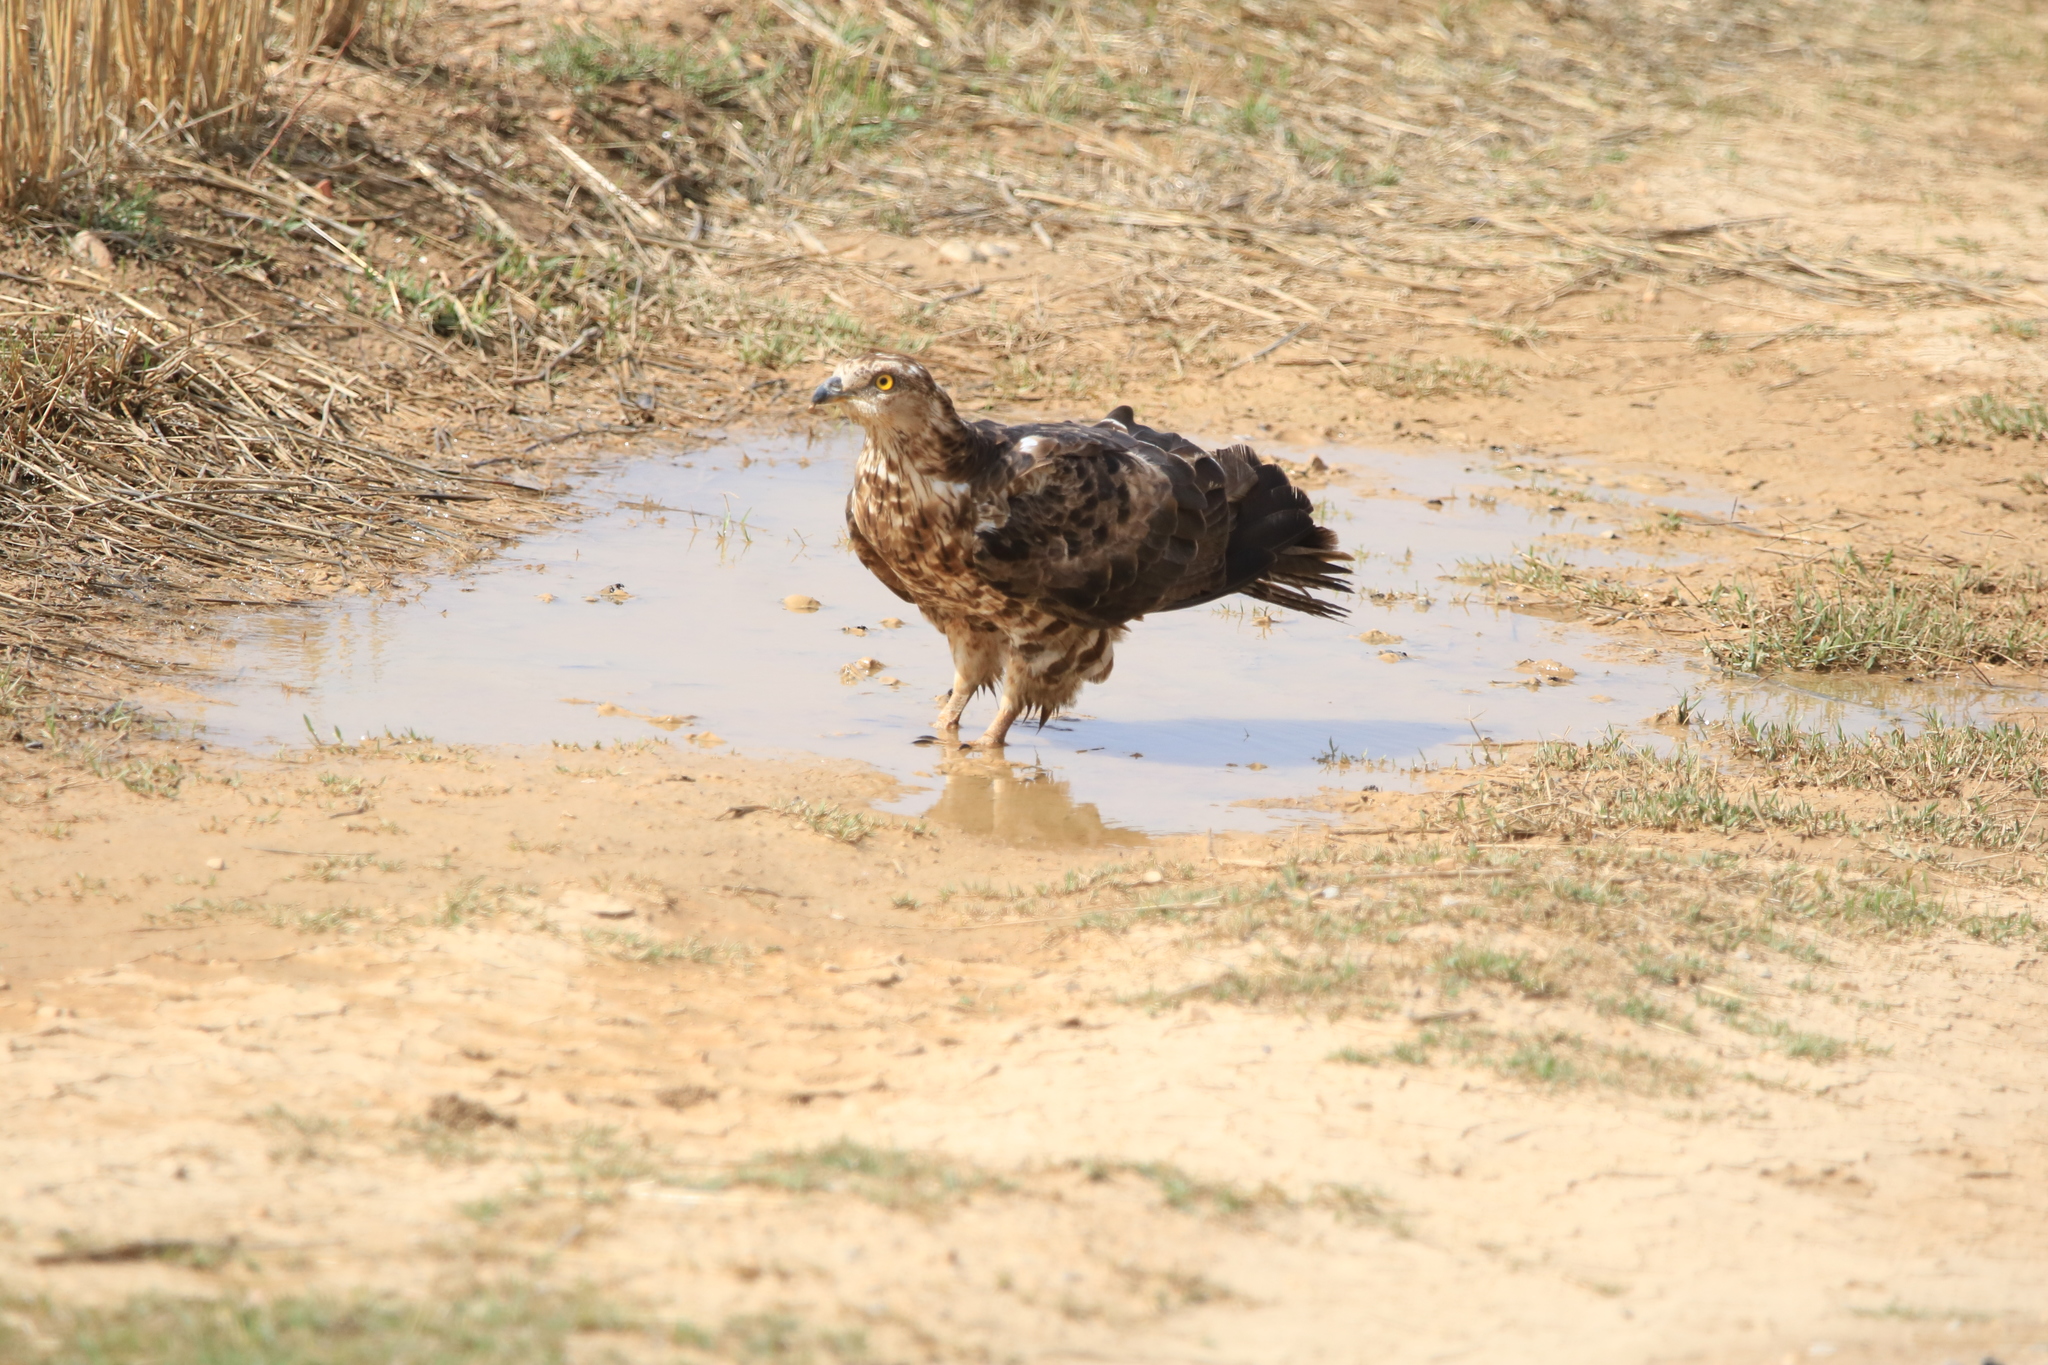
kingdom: Animalia
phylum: Chordata
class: Aves
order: Accipitriformes
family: Accipitridae
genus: Pernis
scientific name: Pernis apivorus
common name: European honey buzzard
